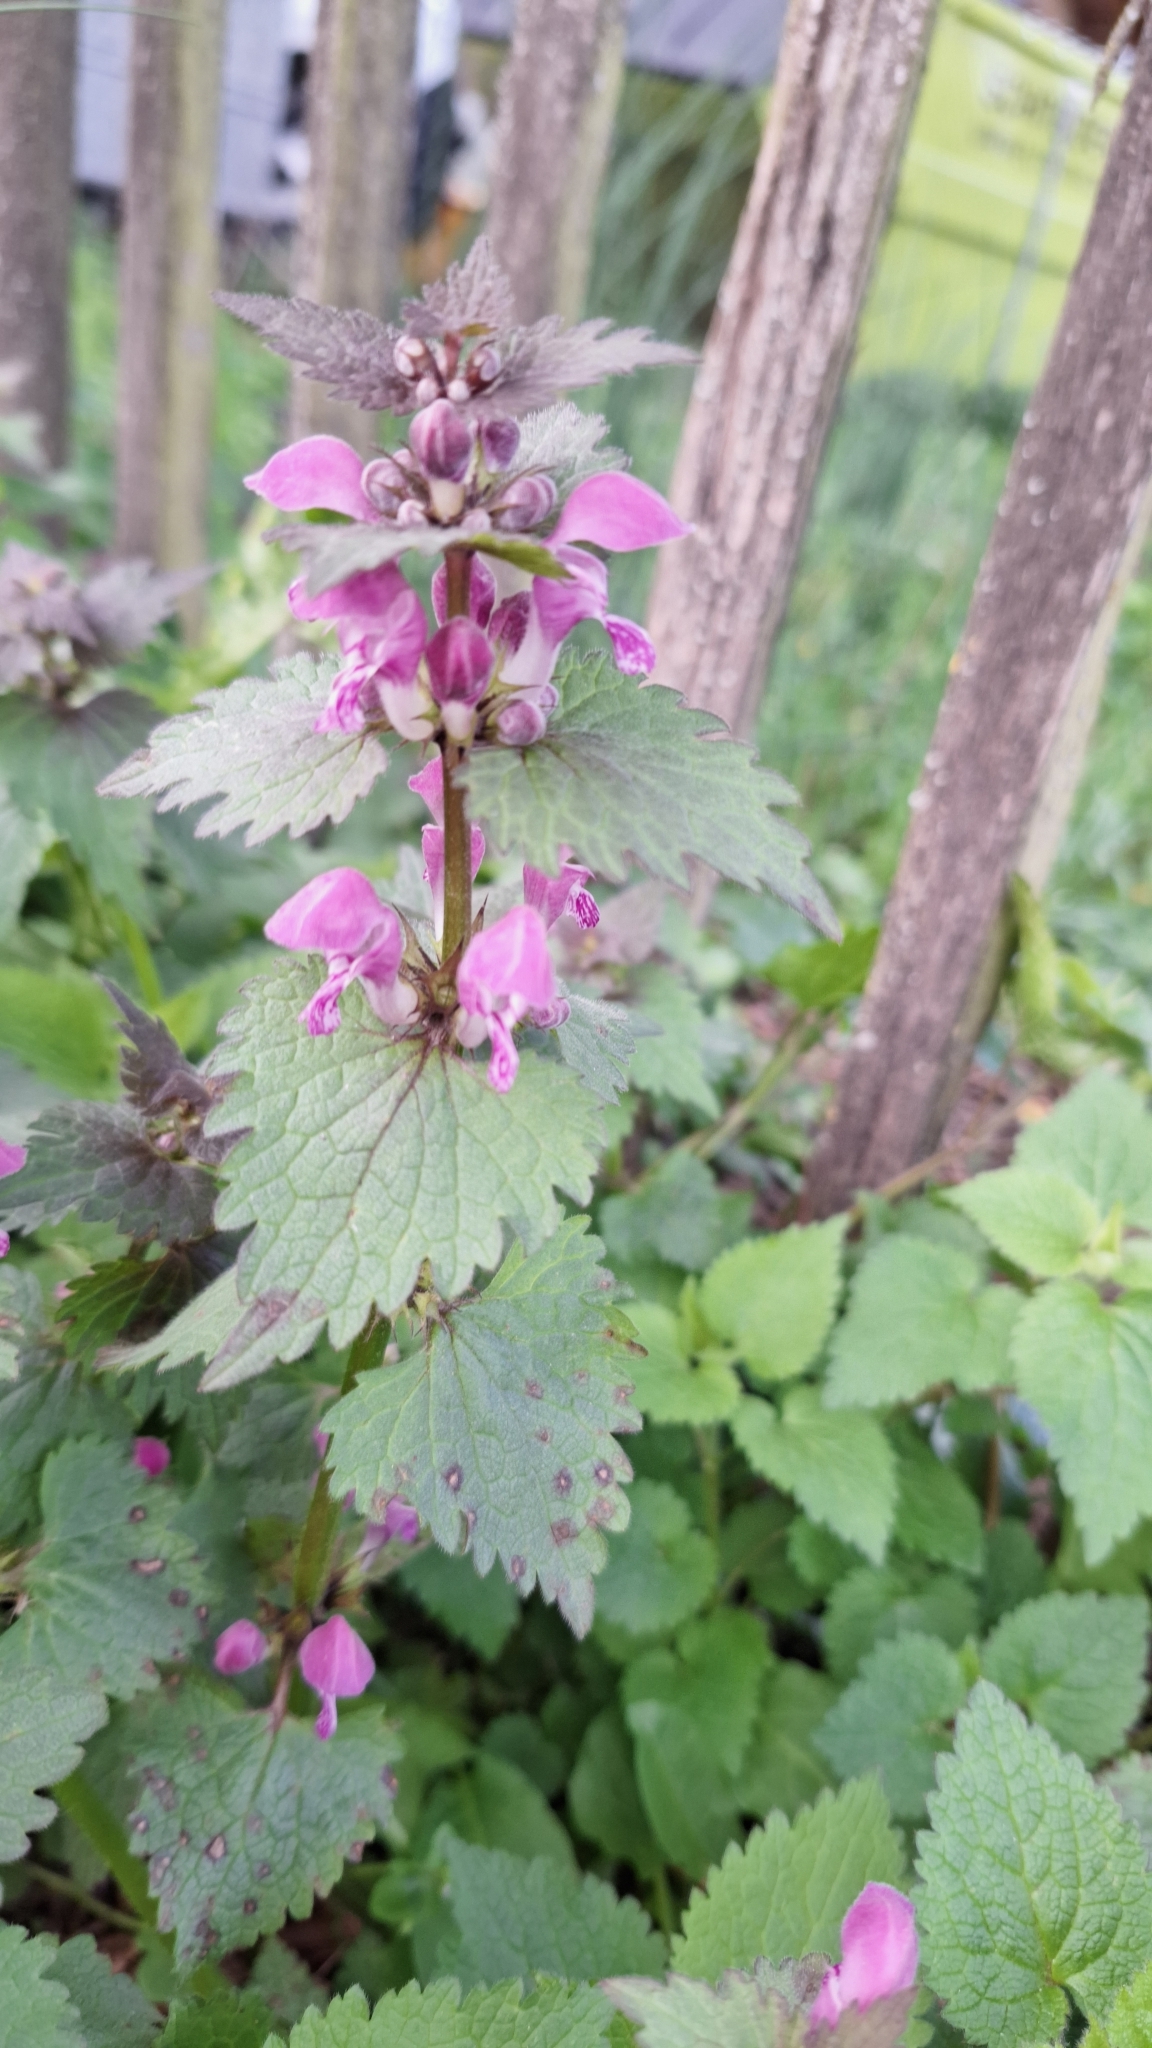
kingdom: Plantae
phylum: Tracheophyta
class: Magnoliopsida
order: Lamiales
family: Lamiaceae
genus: Lamium
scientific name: Lamium maculatum
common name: Spotted dead-nettle
